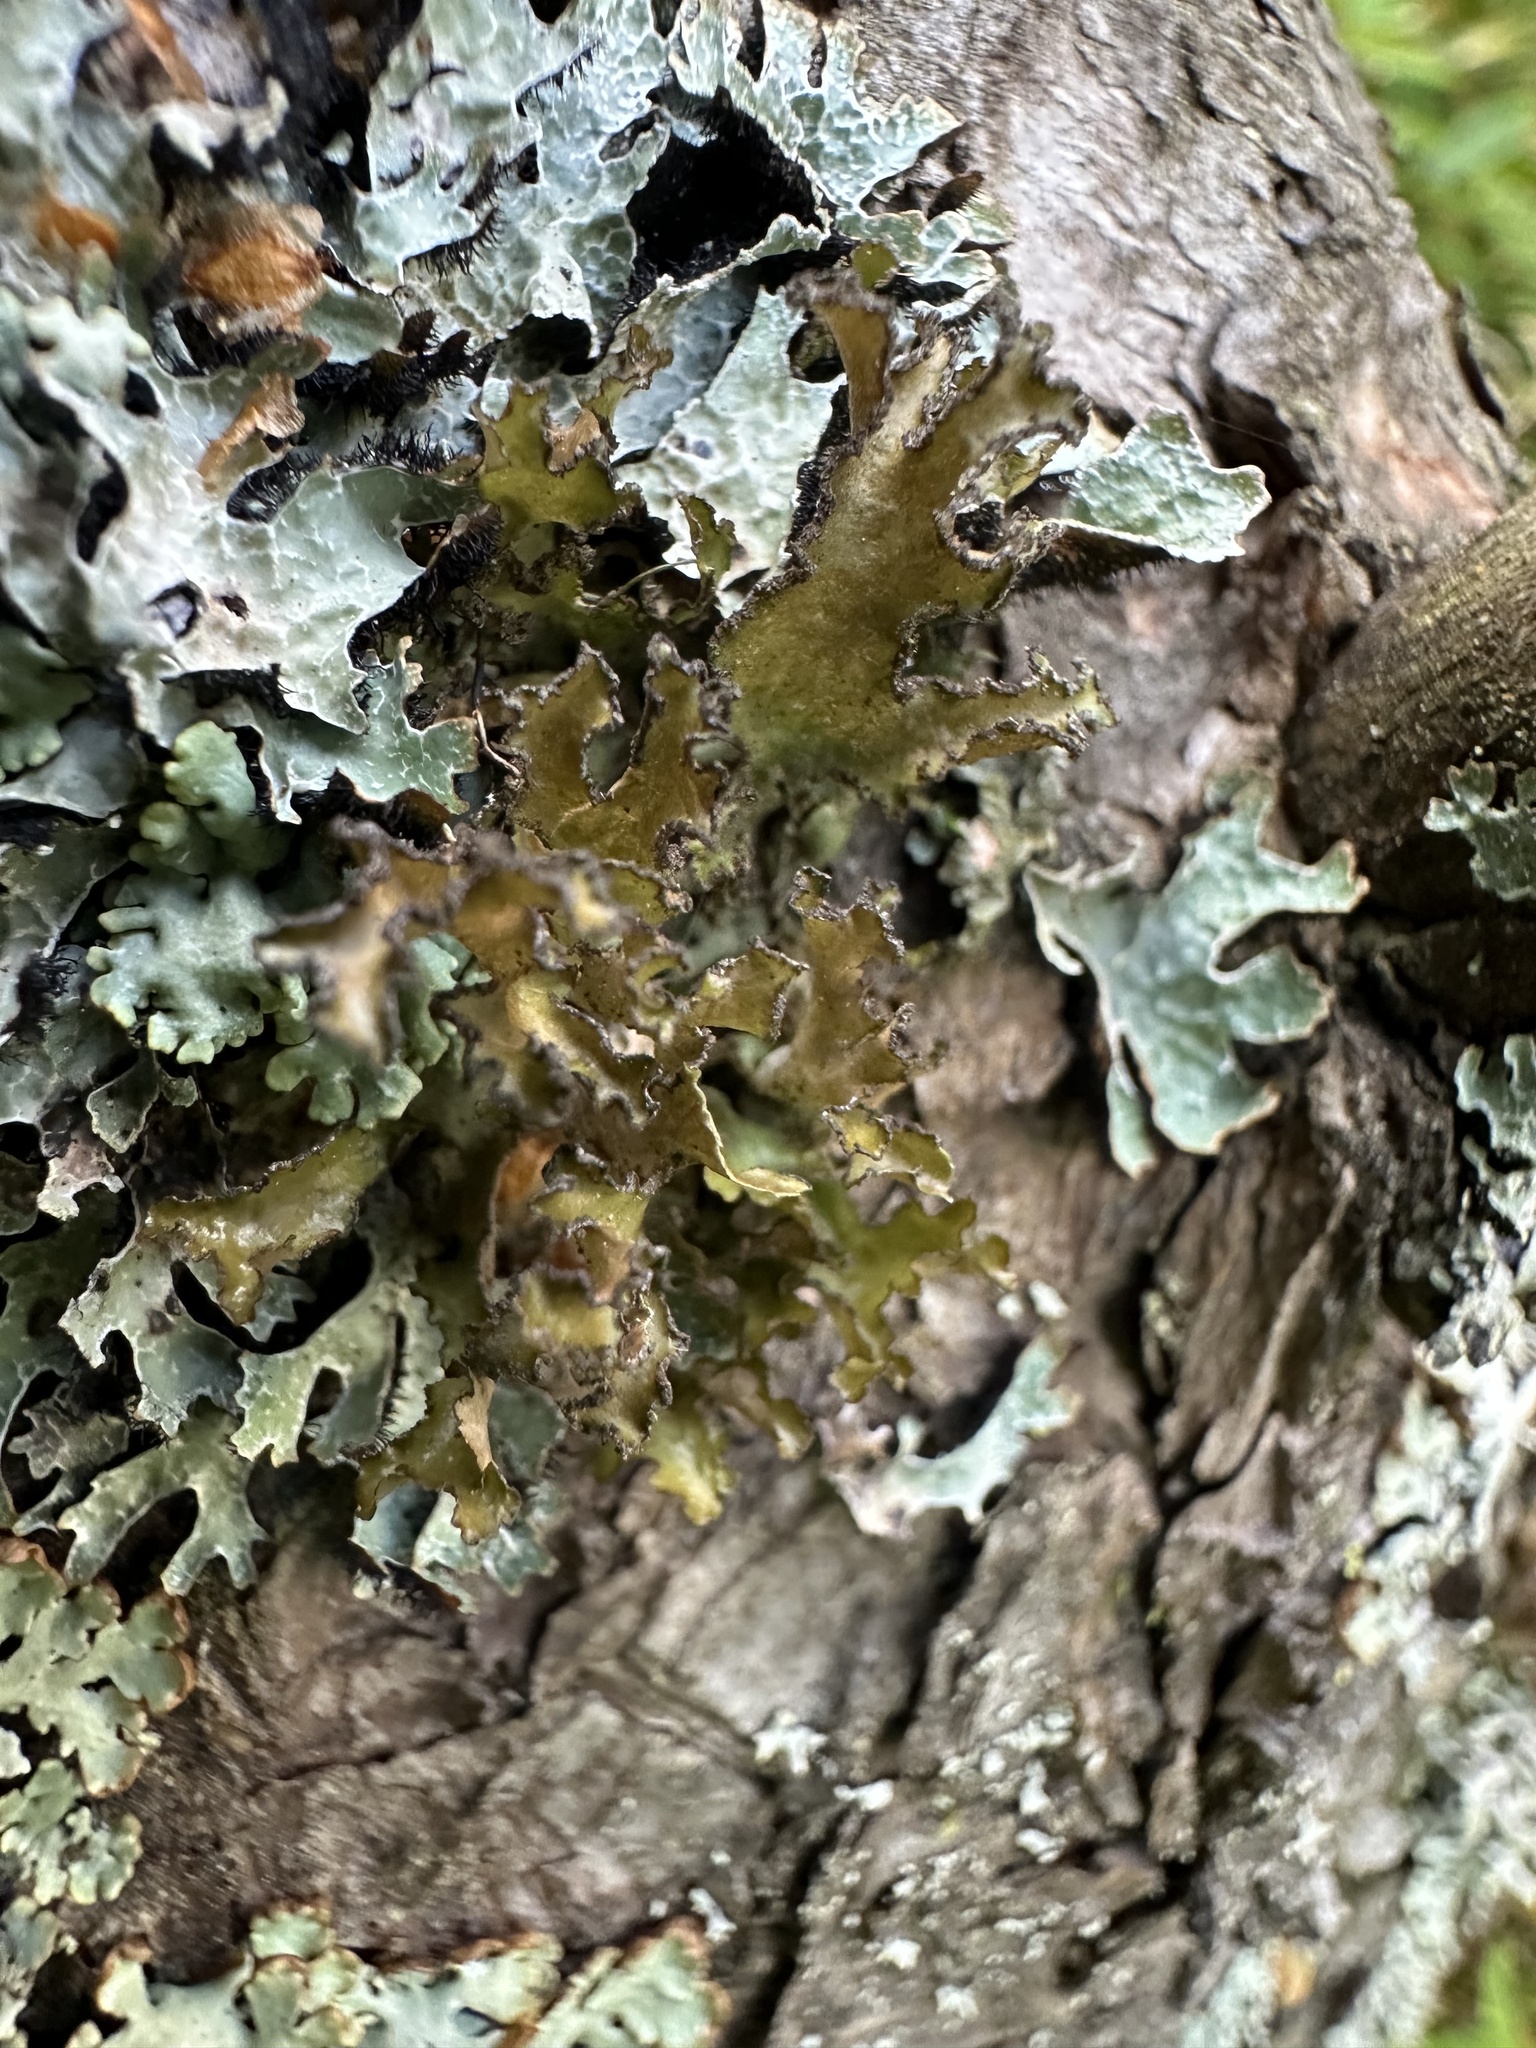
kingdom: Fungi
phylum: Ascomycota
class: Lecanoromycetes
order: Lecanorales
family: Parmeliaceae
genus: Nephromopsis
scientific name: Nephromopsis chlorophylla
